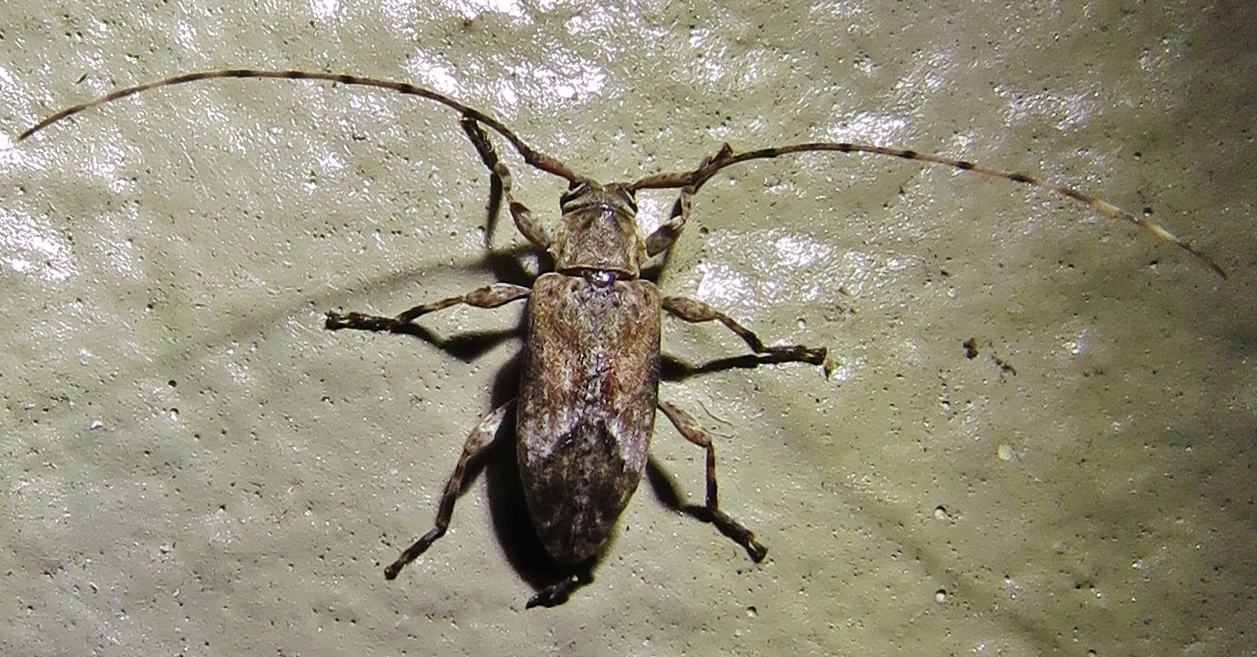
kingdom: Animalia
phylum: Arthropoda
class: Insecta
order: Coleoptera
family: Cerambycidae
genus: Sternidius
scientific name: Sternidius alpha
